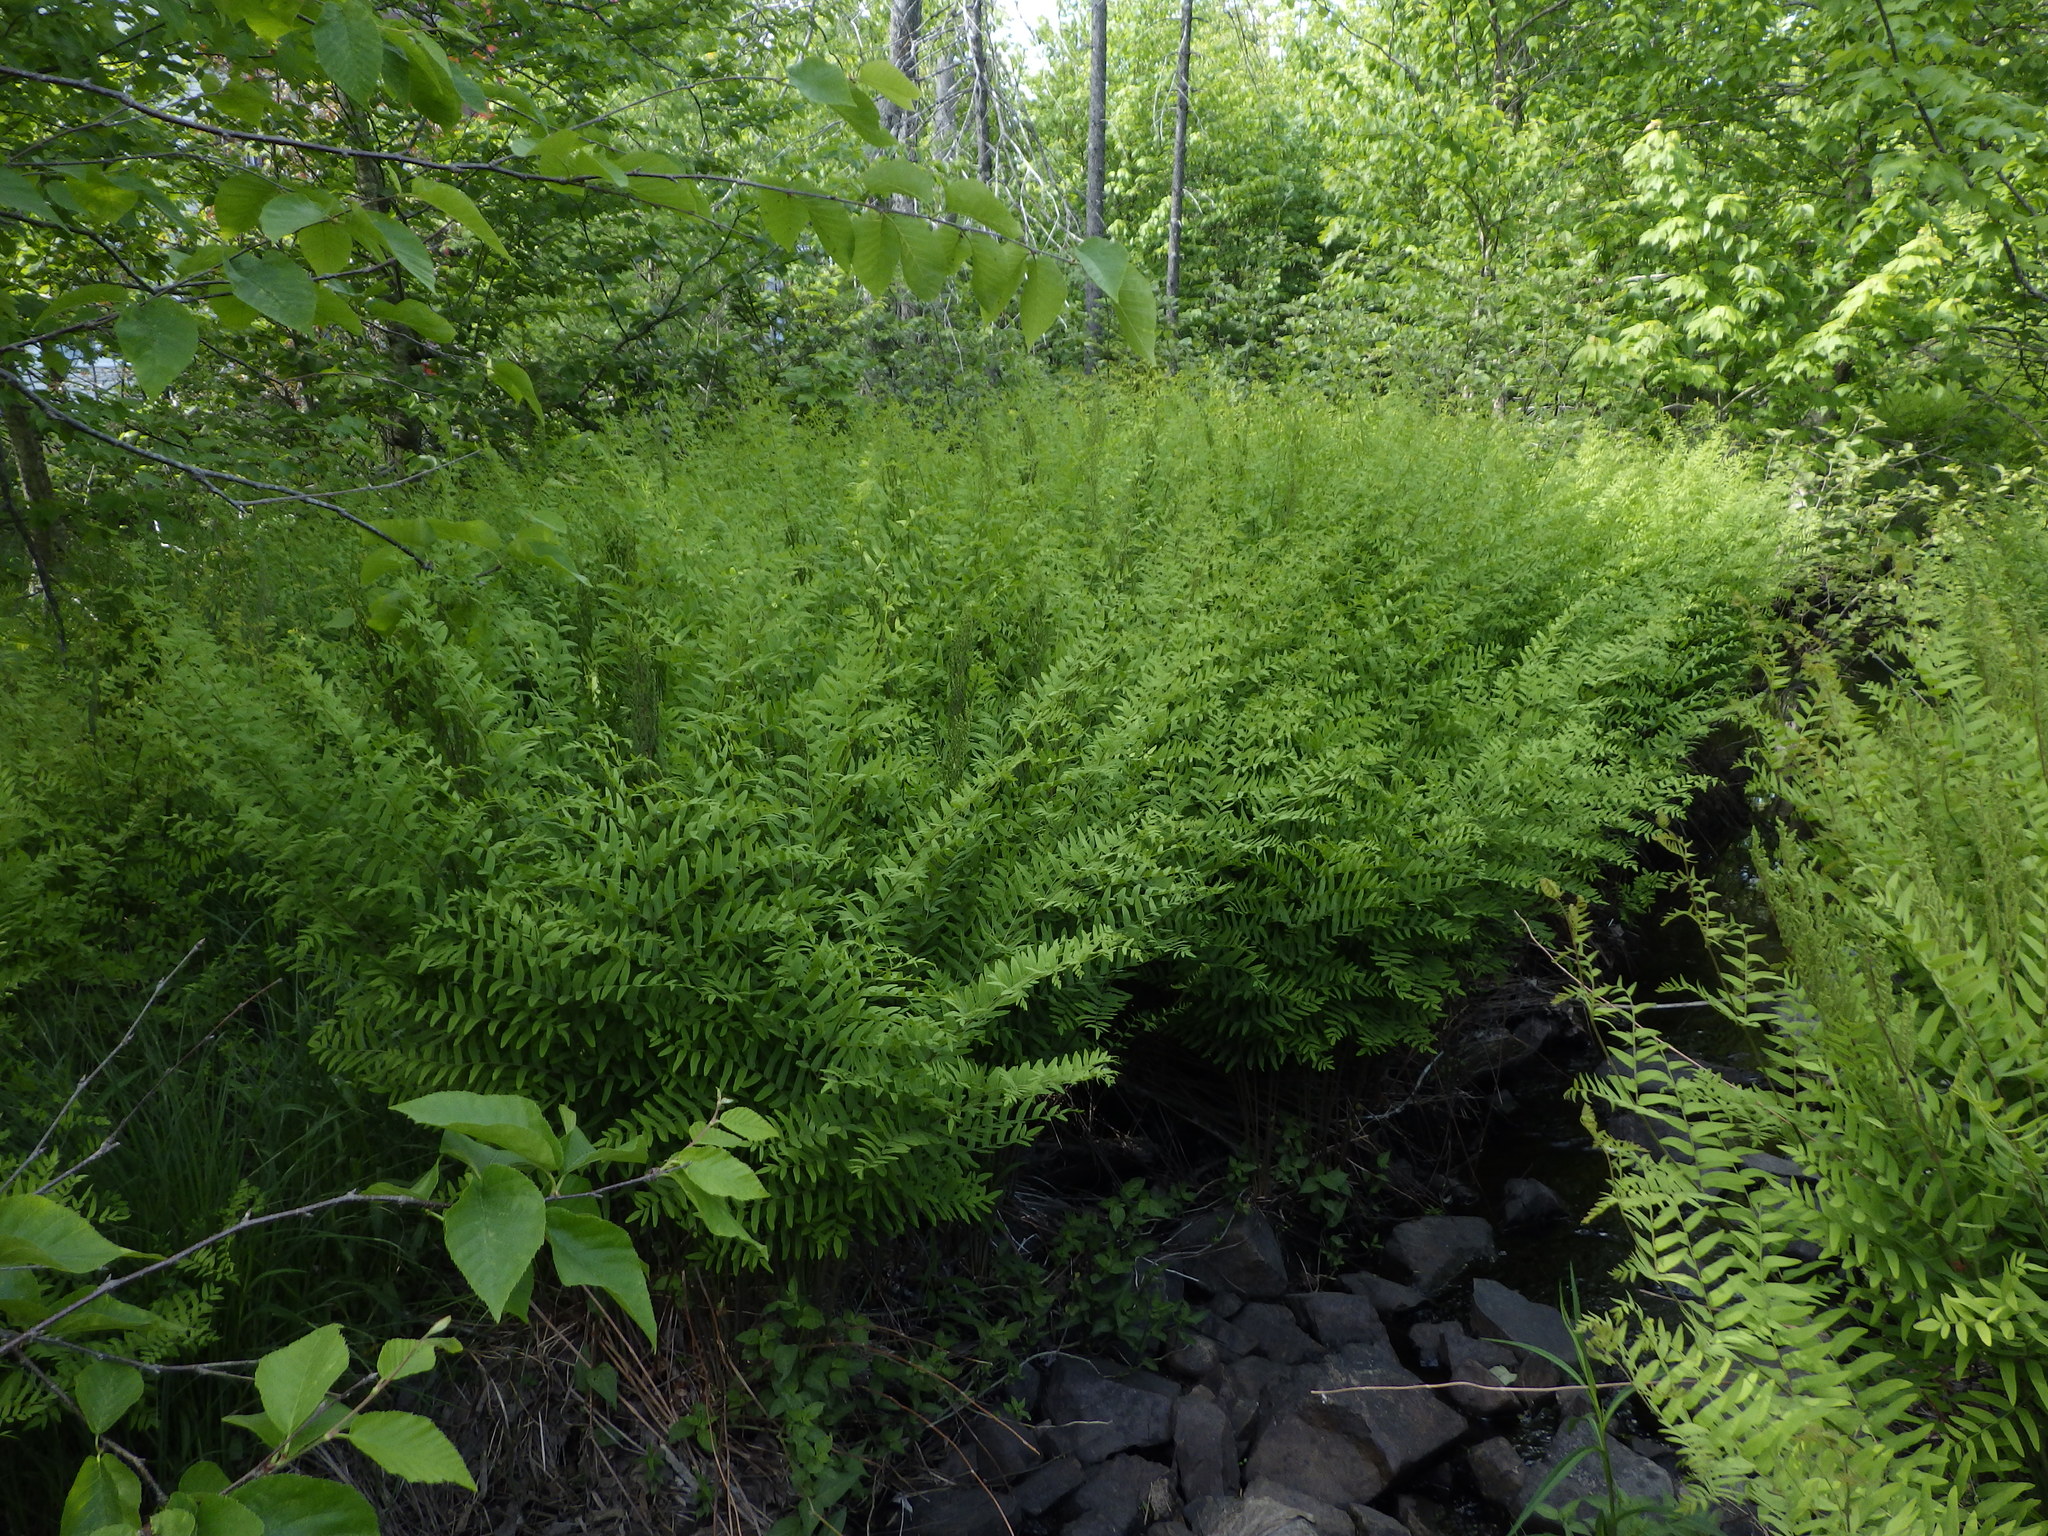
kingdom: Plantae
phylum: Tracheophyta
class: Polypodiopsida
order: Osmundales
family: Osmundaceae
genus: Osmunda
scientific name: Osmunda spectabilis
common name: American royal fern
